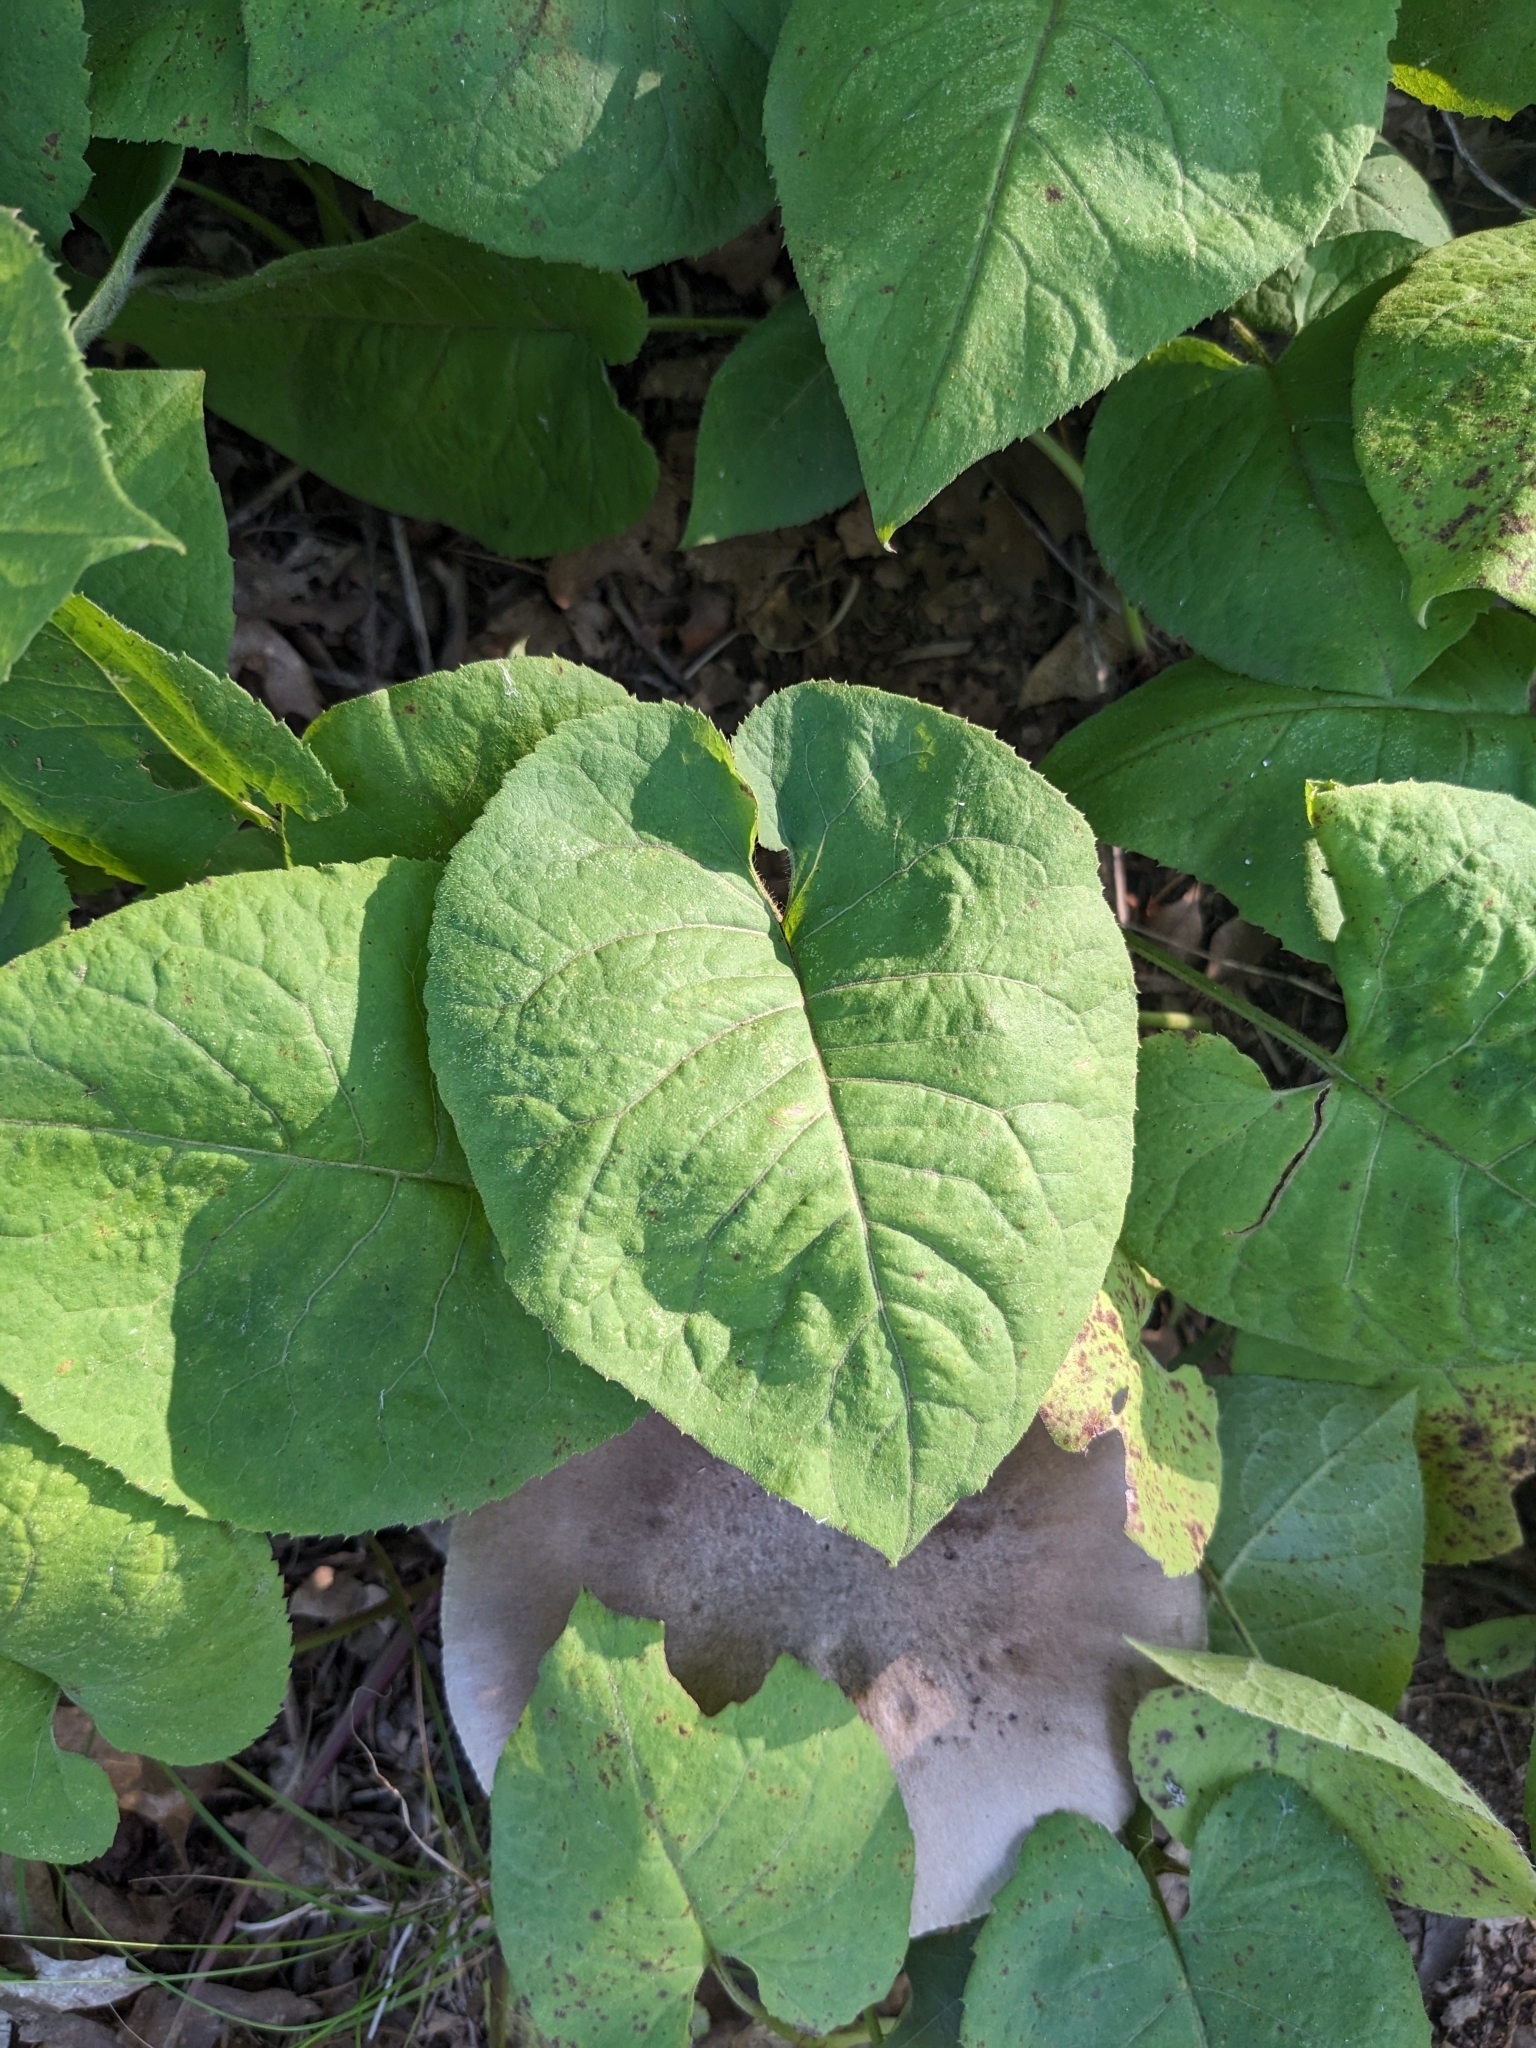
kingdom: Plantae
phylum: Tracheophyta
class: Magnoliopsida
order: Asterales
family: Asteraceae
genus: Eurybia
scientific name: Eurybia macrophylla
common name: Big-leaved aster
